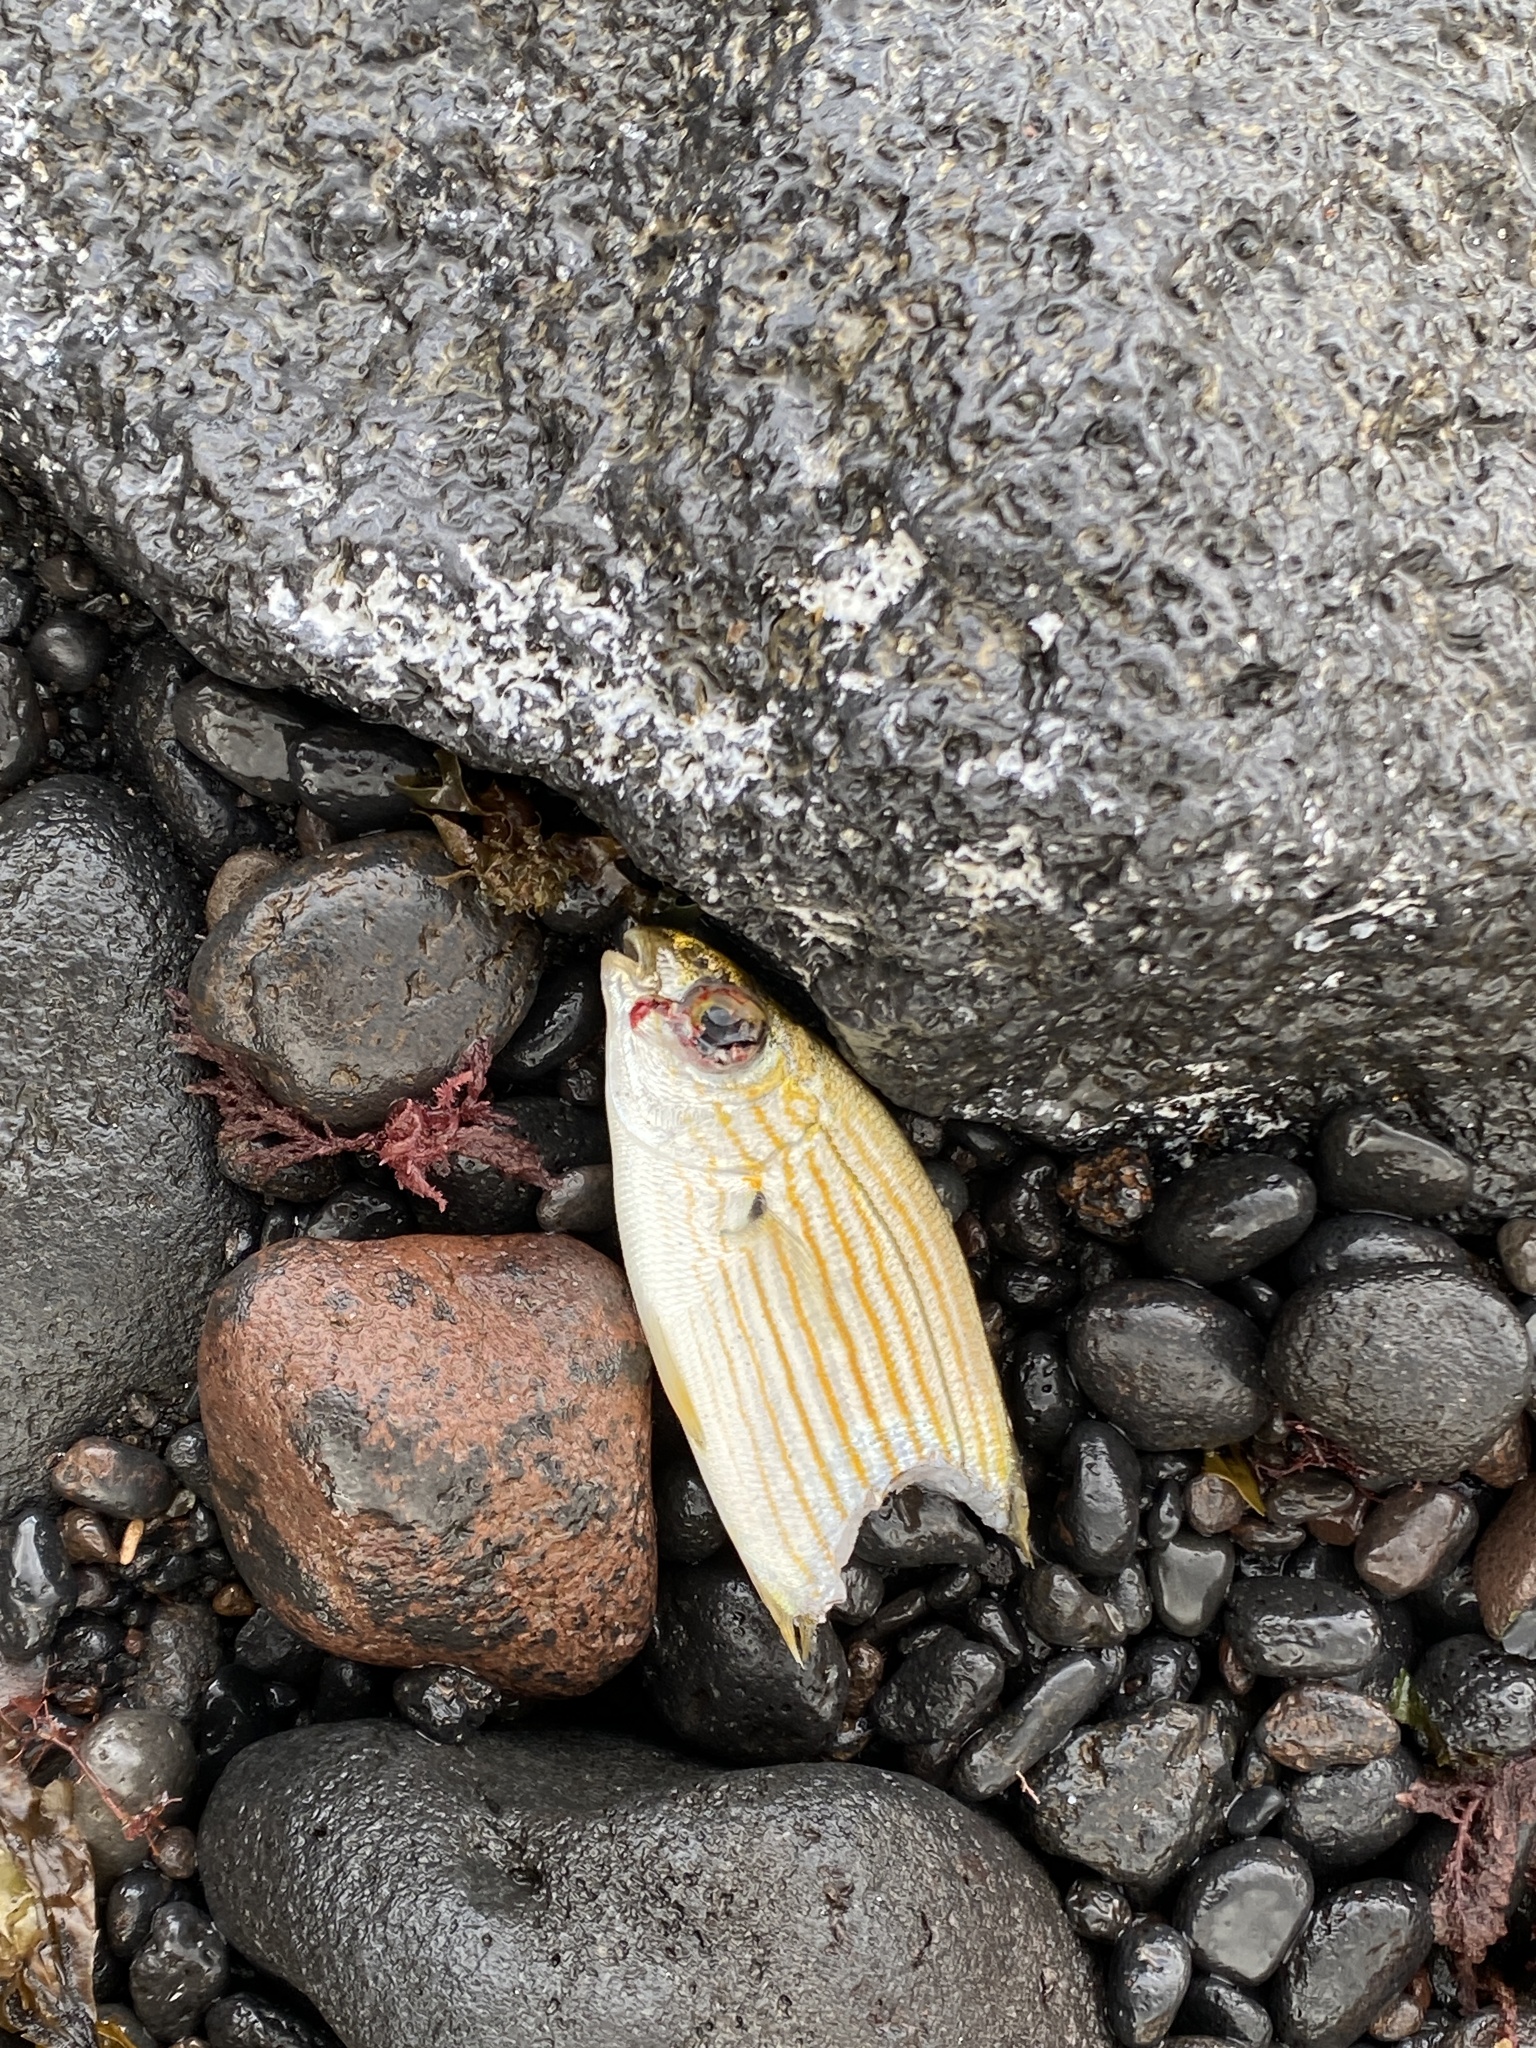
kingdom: Animalia
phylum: Chordata
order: Perciformes
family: Sparidae
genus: Sarpa
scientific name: Sarpa salpa
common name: Salema
